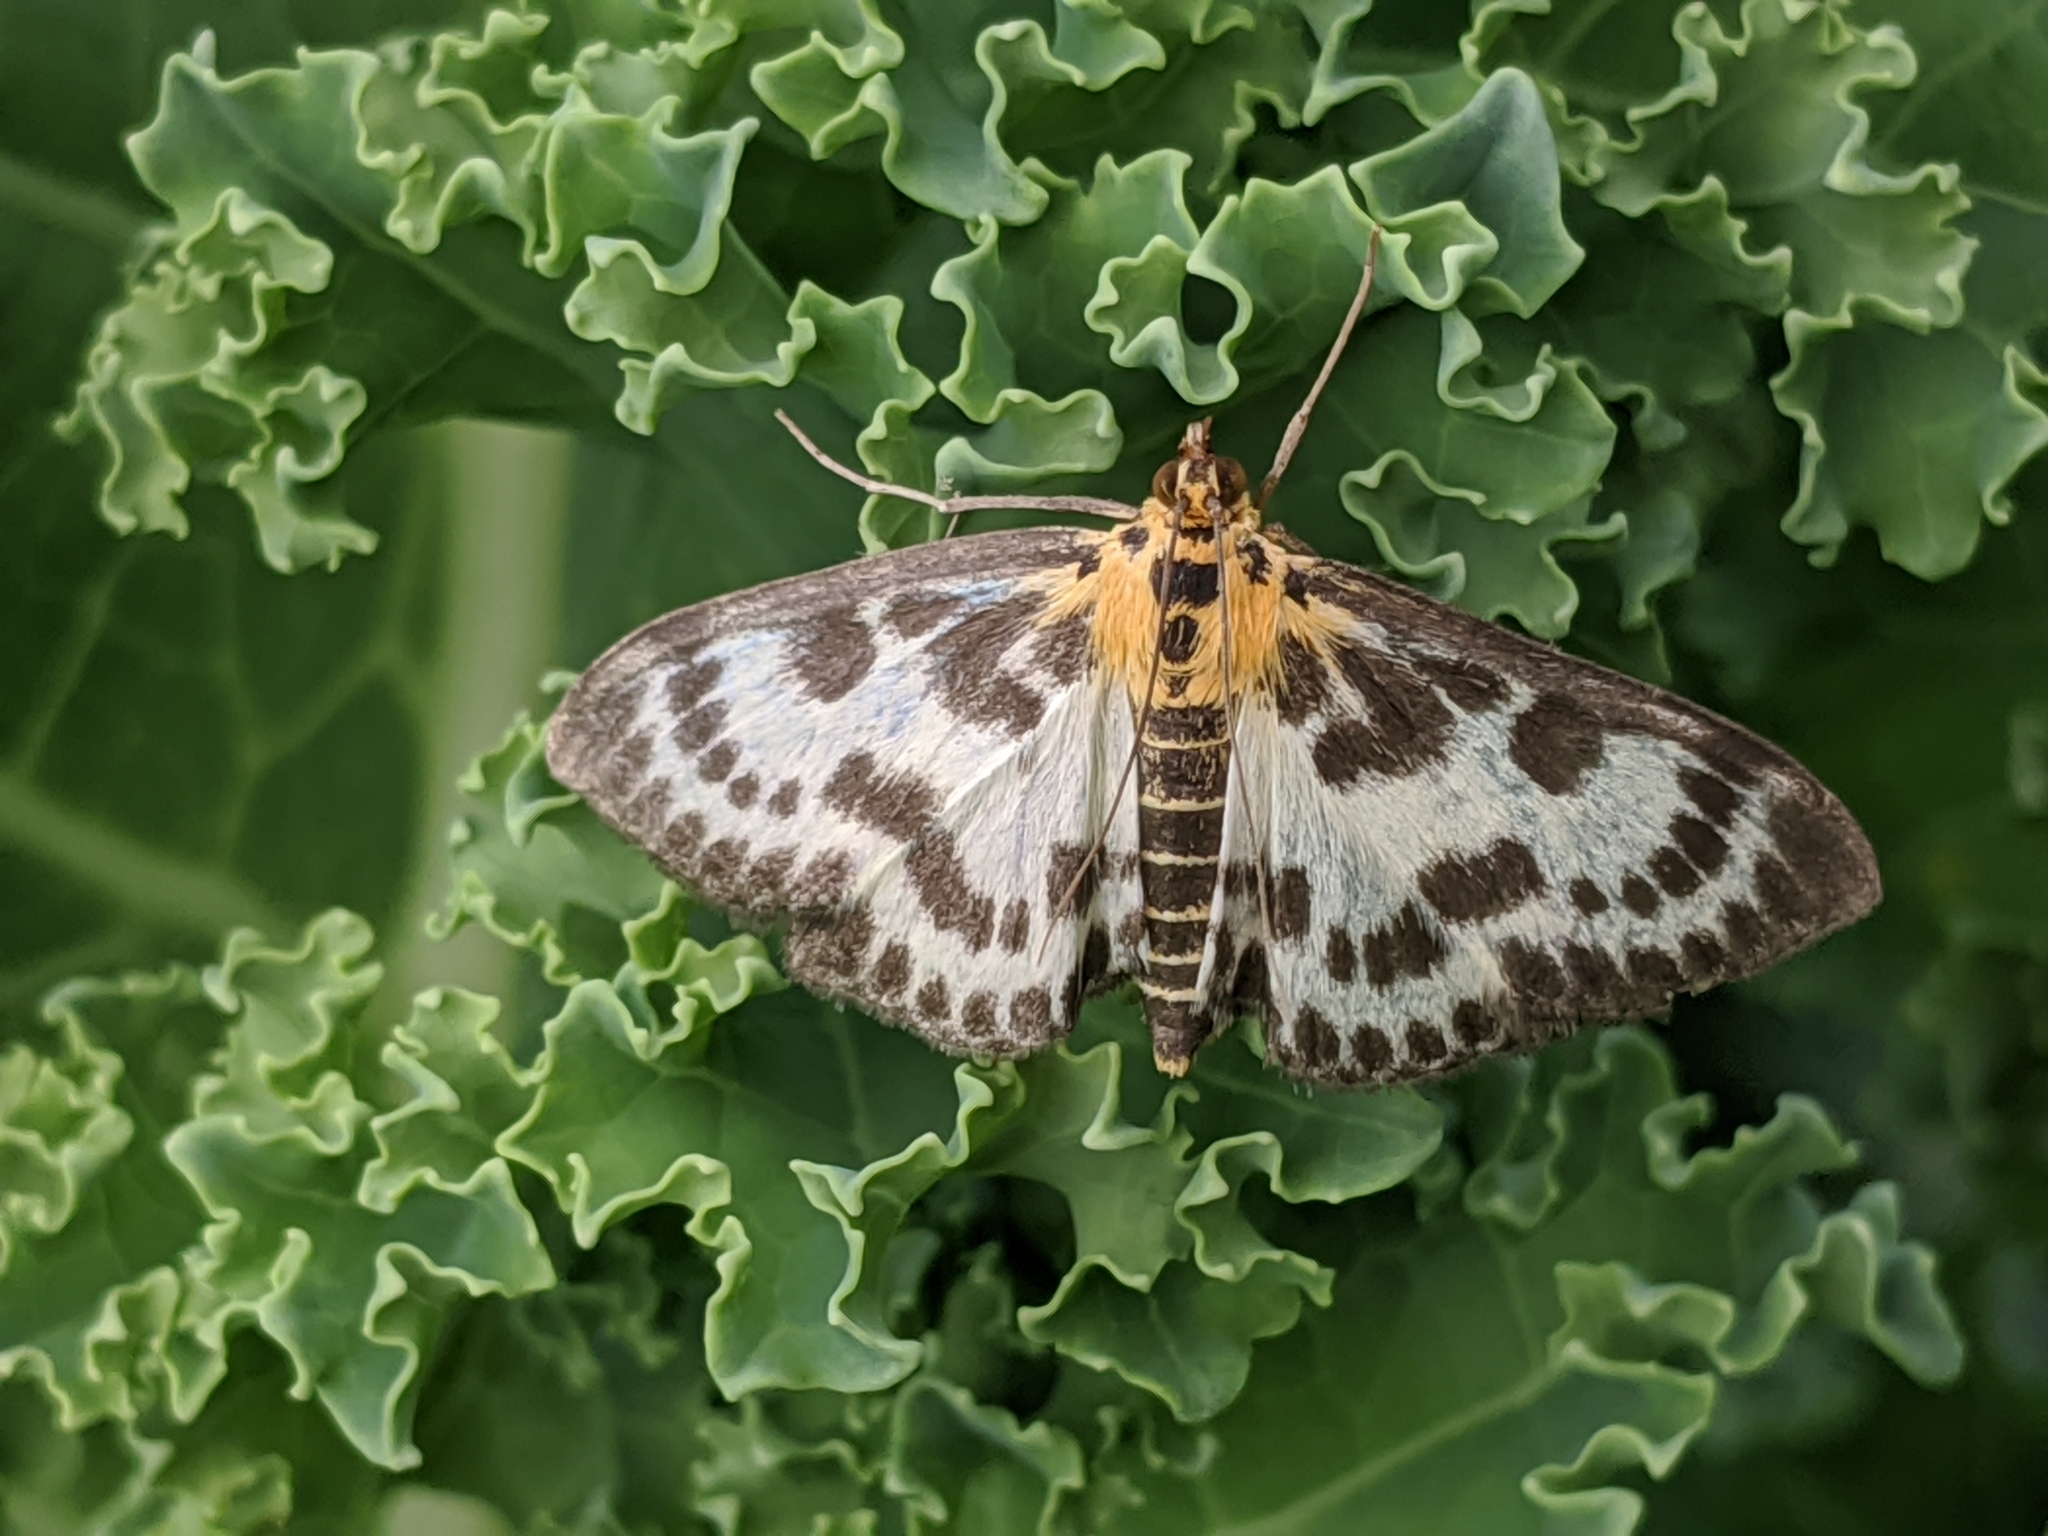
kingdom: Animalia
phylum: Arthropoda
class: Insecta
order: Lepidoptera
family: Crambidae
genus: Anania
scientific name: Anania hortulata
